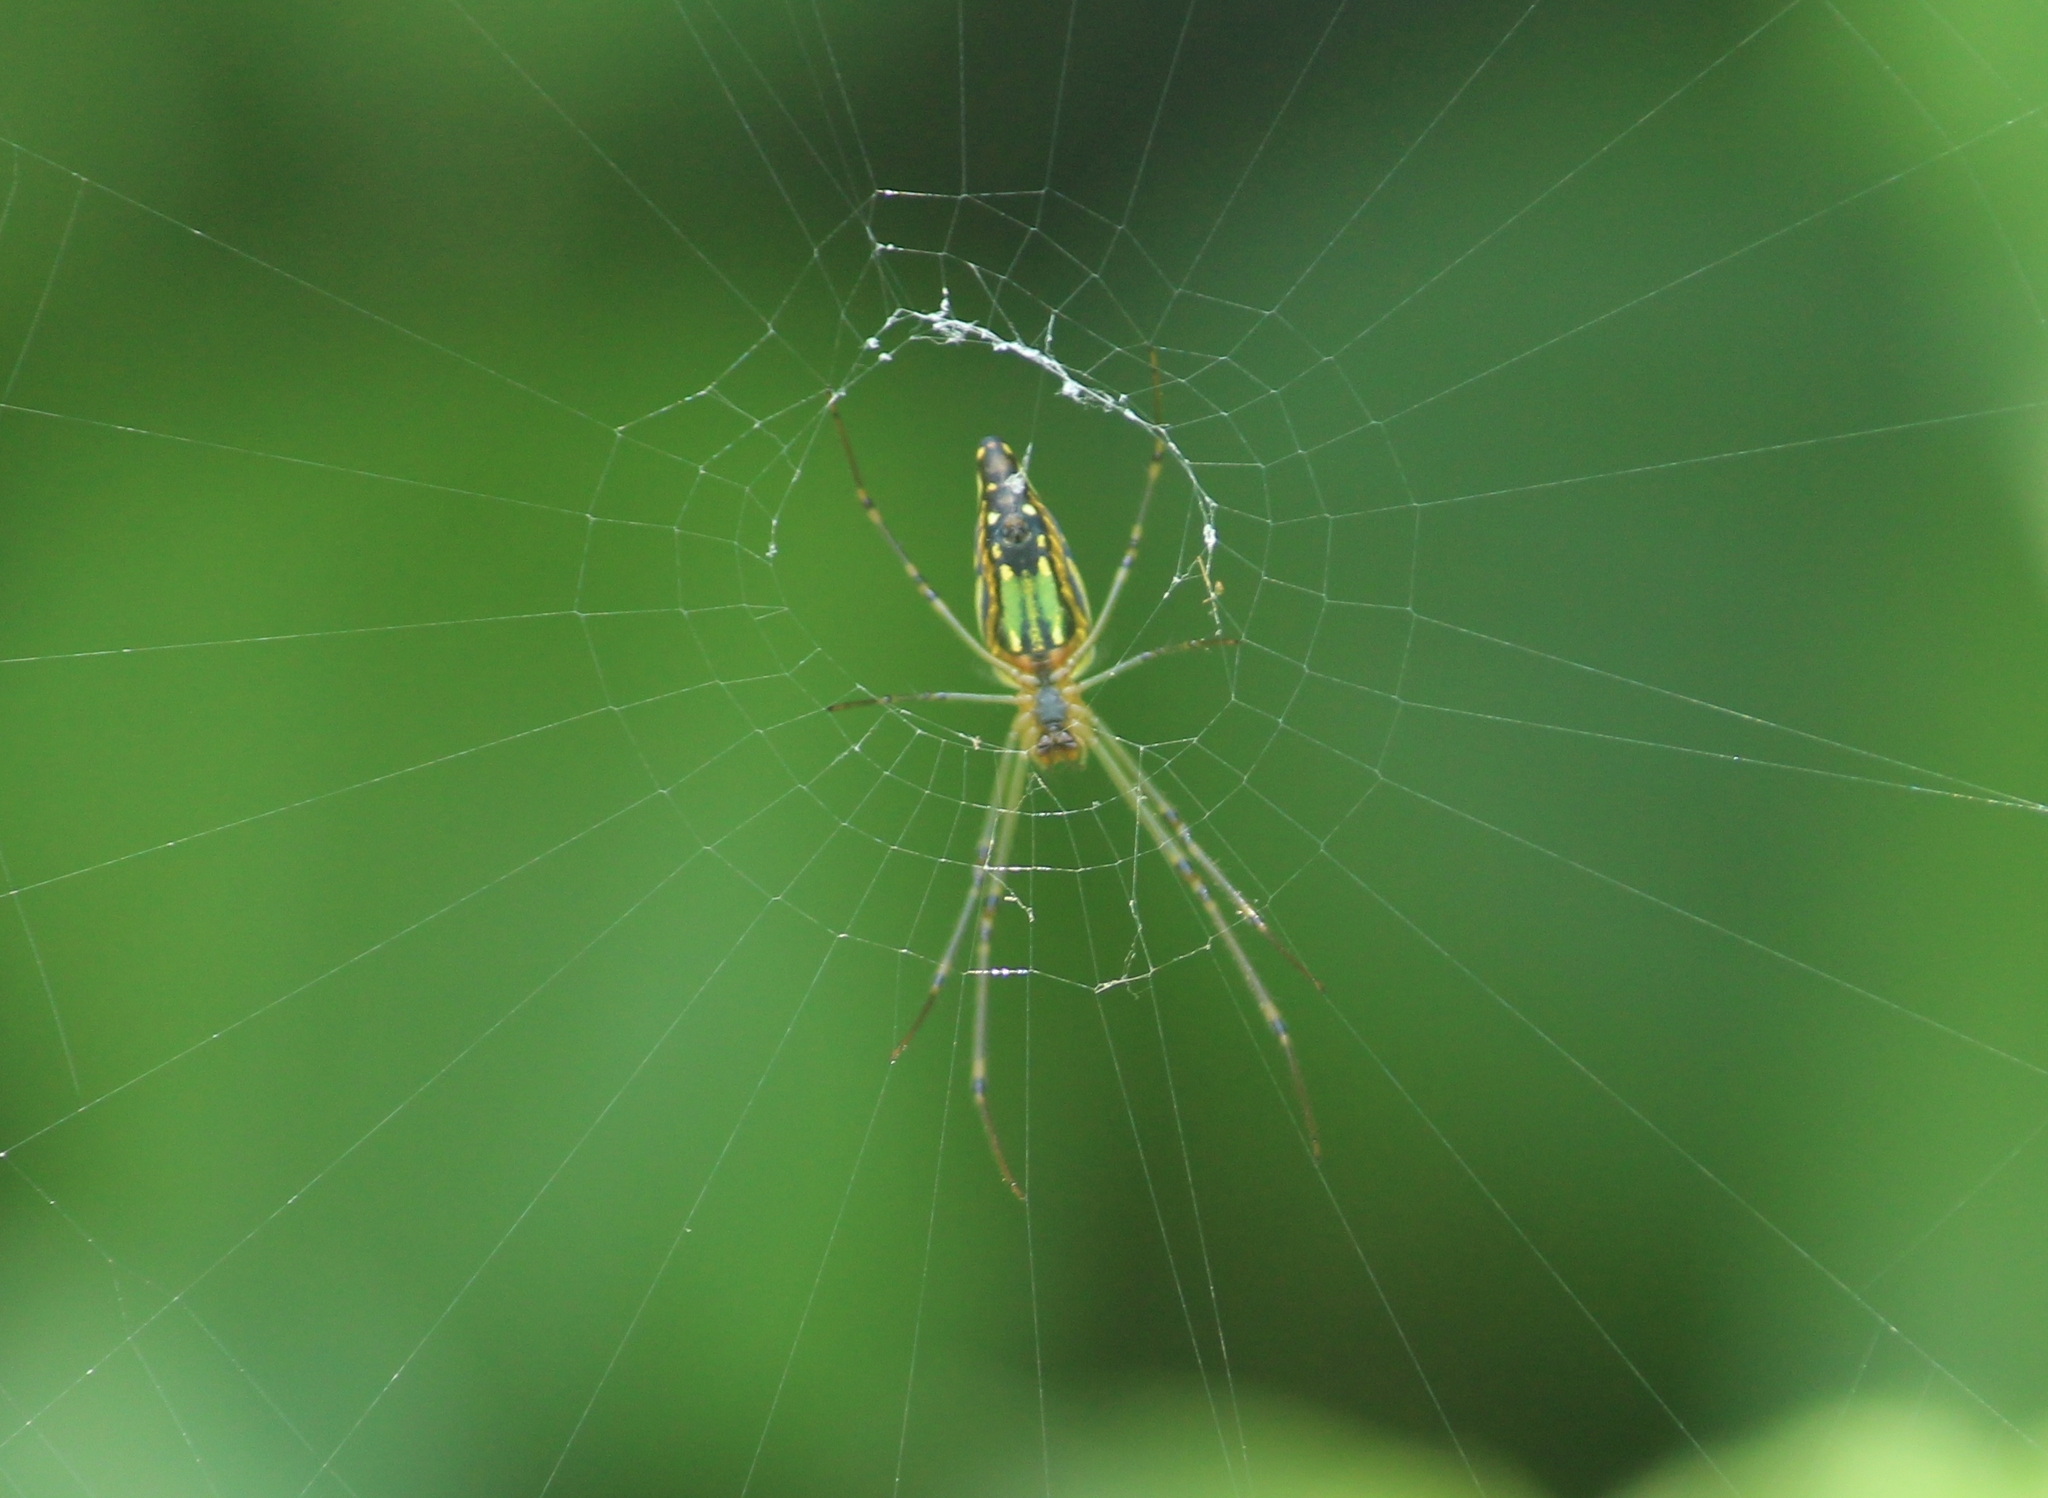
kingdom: Animalia
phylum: Arthropoda
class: Arachnida
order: Araneae
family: Tetragnathidae
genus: Leucauge
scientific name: Leucauge decorata
